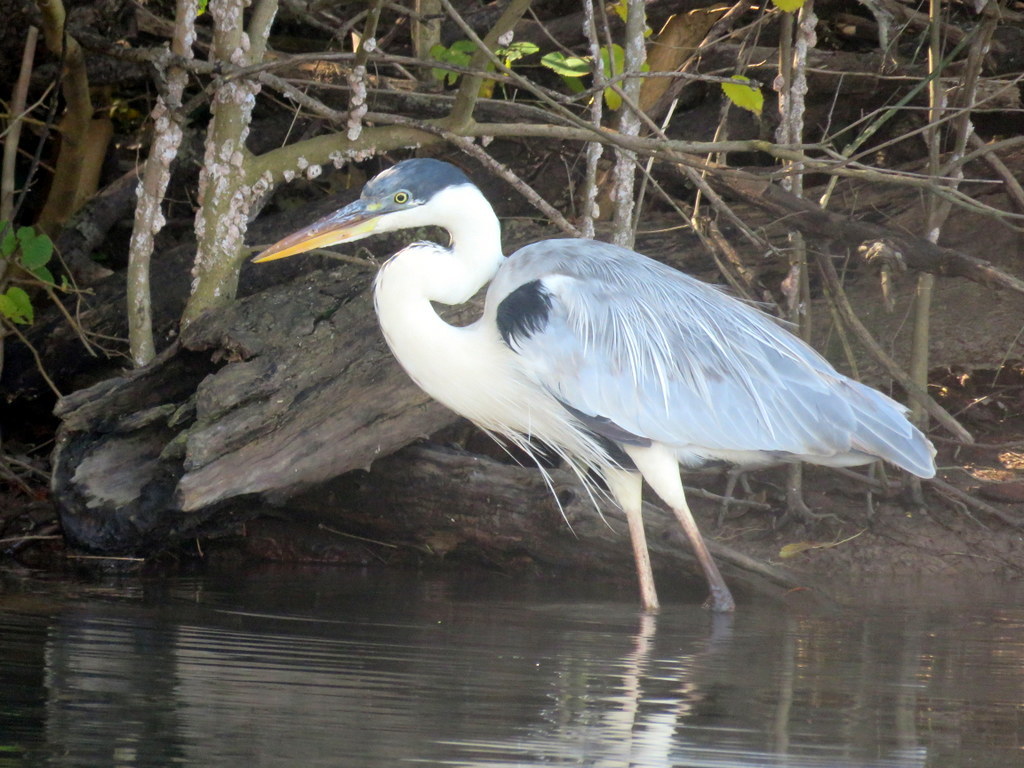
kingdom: Animalia
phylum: Chordata
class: Aves
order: Pelecaniformes
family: Ardeidae
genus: Ardea
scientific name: Ardea cocoi
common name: Cocoi heron
